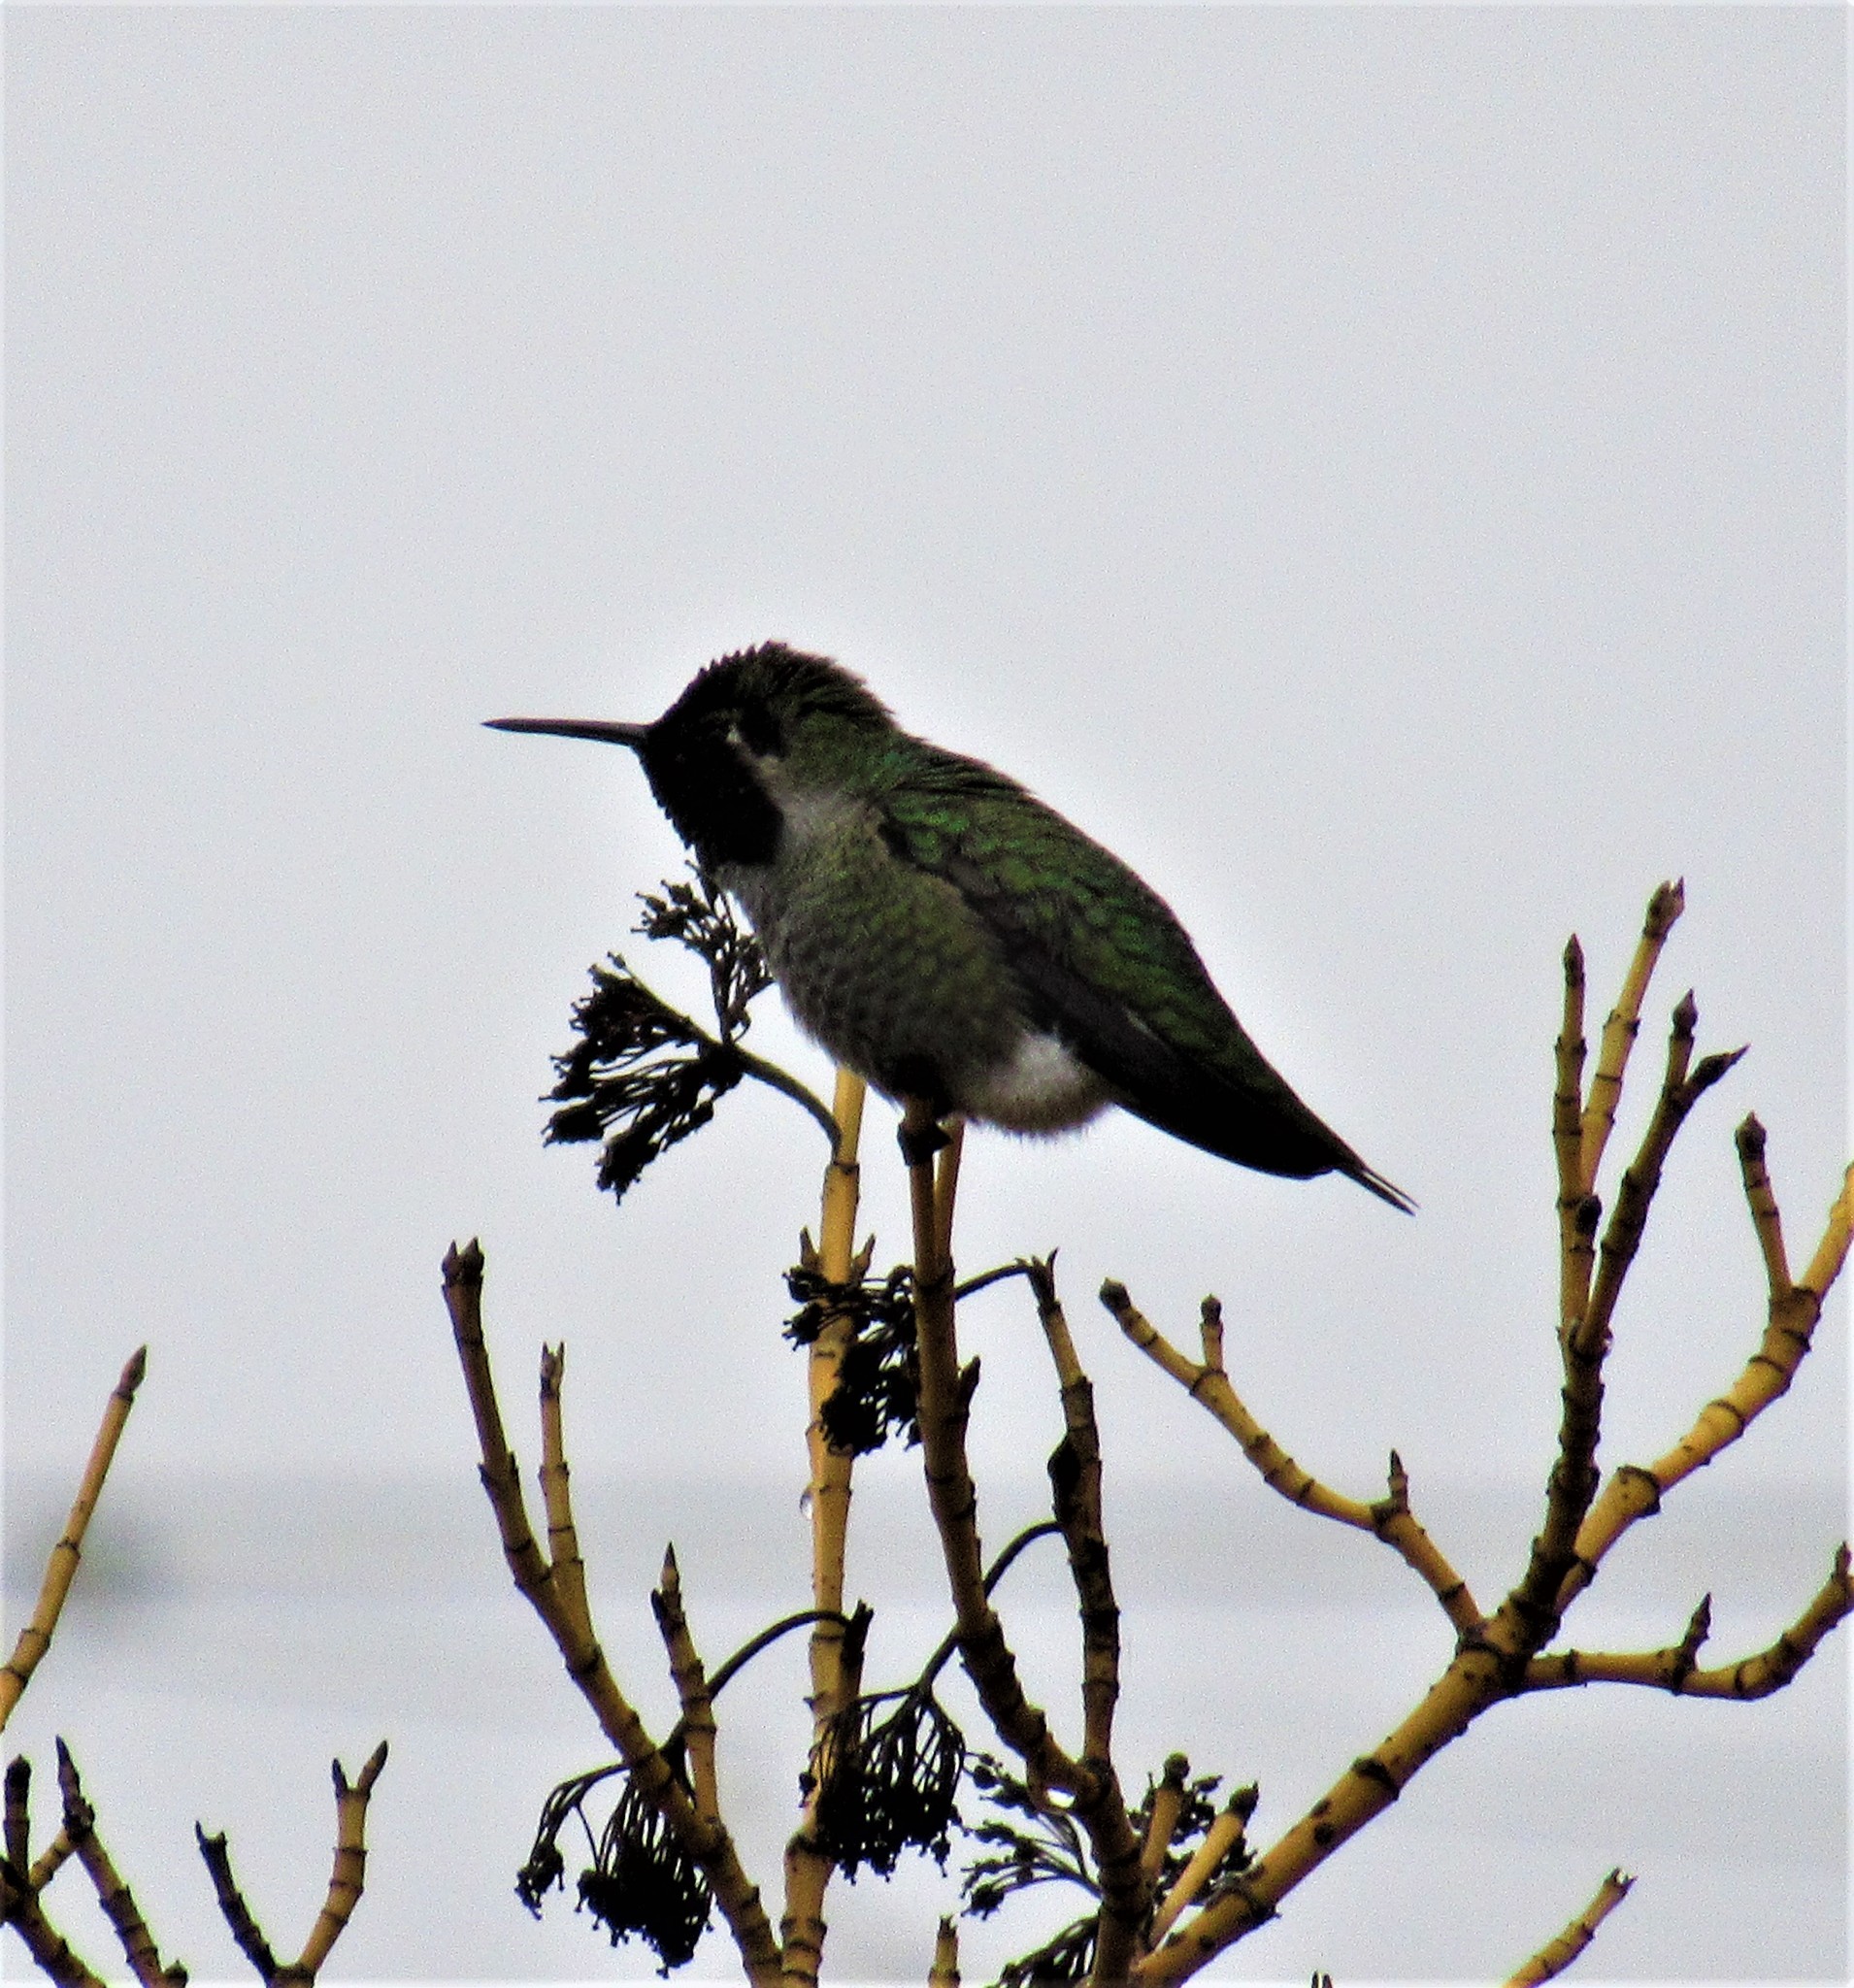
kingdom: Animalia
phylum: Chordata
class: Aves
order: Apodiformes
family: Trochilidae
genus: Calypte
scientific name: Calypte anna
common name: Anna's hummingbird
